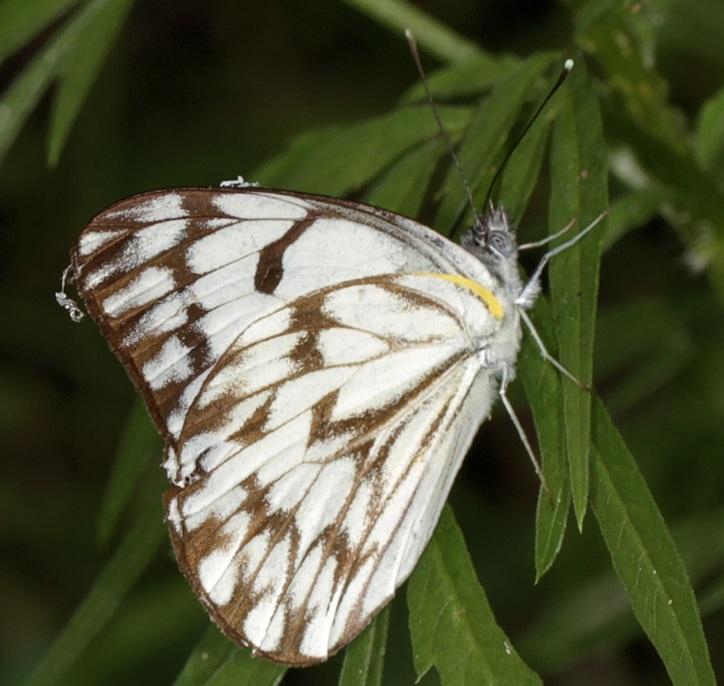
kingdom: Animalia
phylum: Arthropoda
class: Insecta
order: Lepidoptera
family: Pieridae
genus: Belenois
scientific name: Belenois gidica
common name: Pointed caper white
